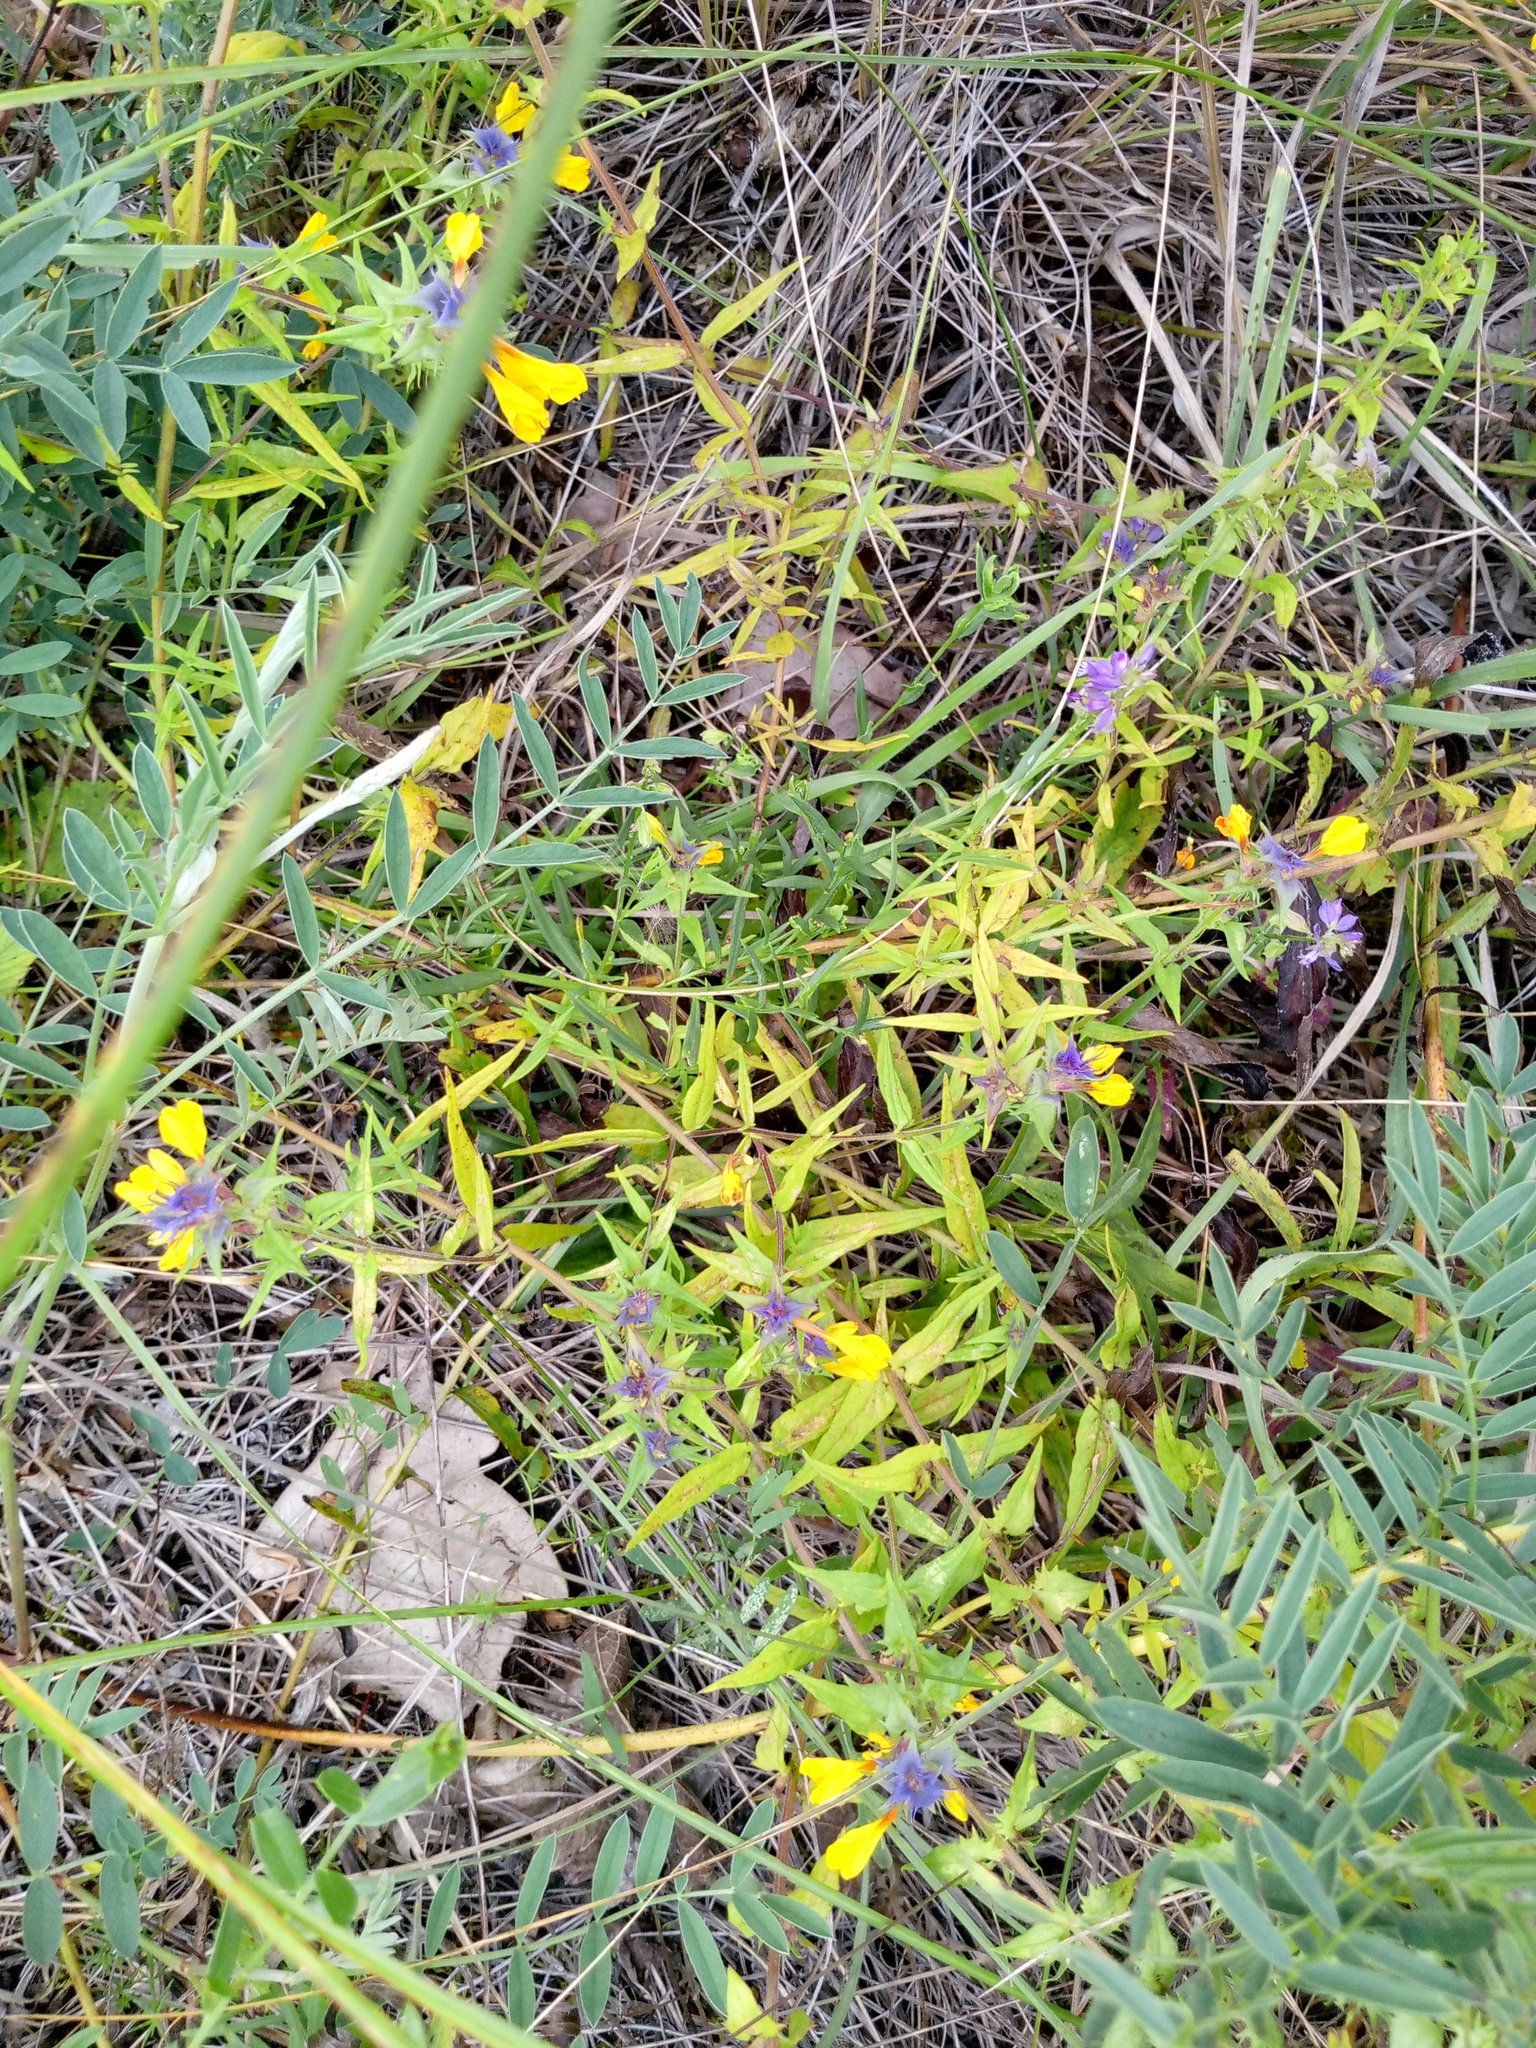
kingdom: Plantae
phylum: Tracheophyta
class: Magnoliopsida
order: Lamiales
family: Orobanchaceae
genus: Melampyrum
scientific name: Melampyrum nemorosum
